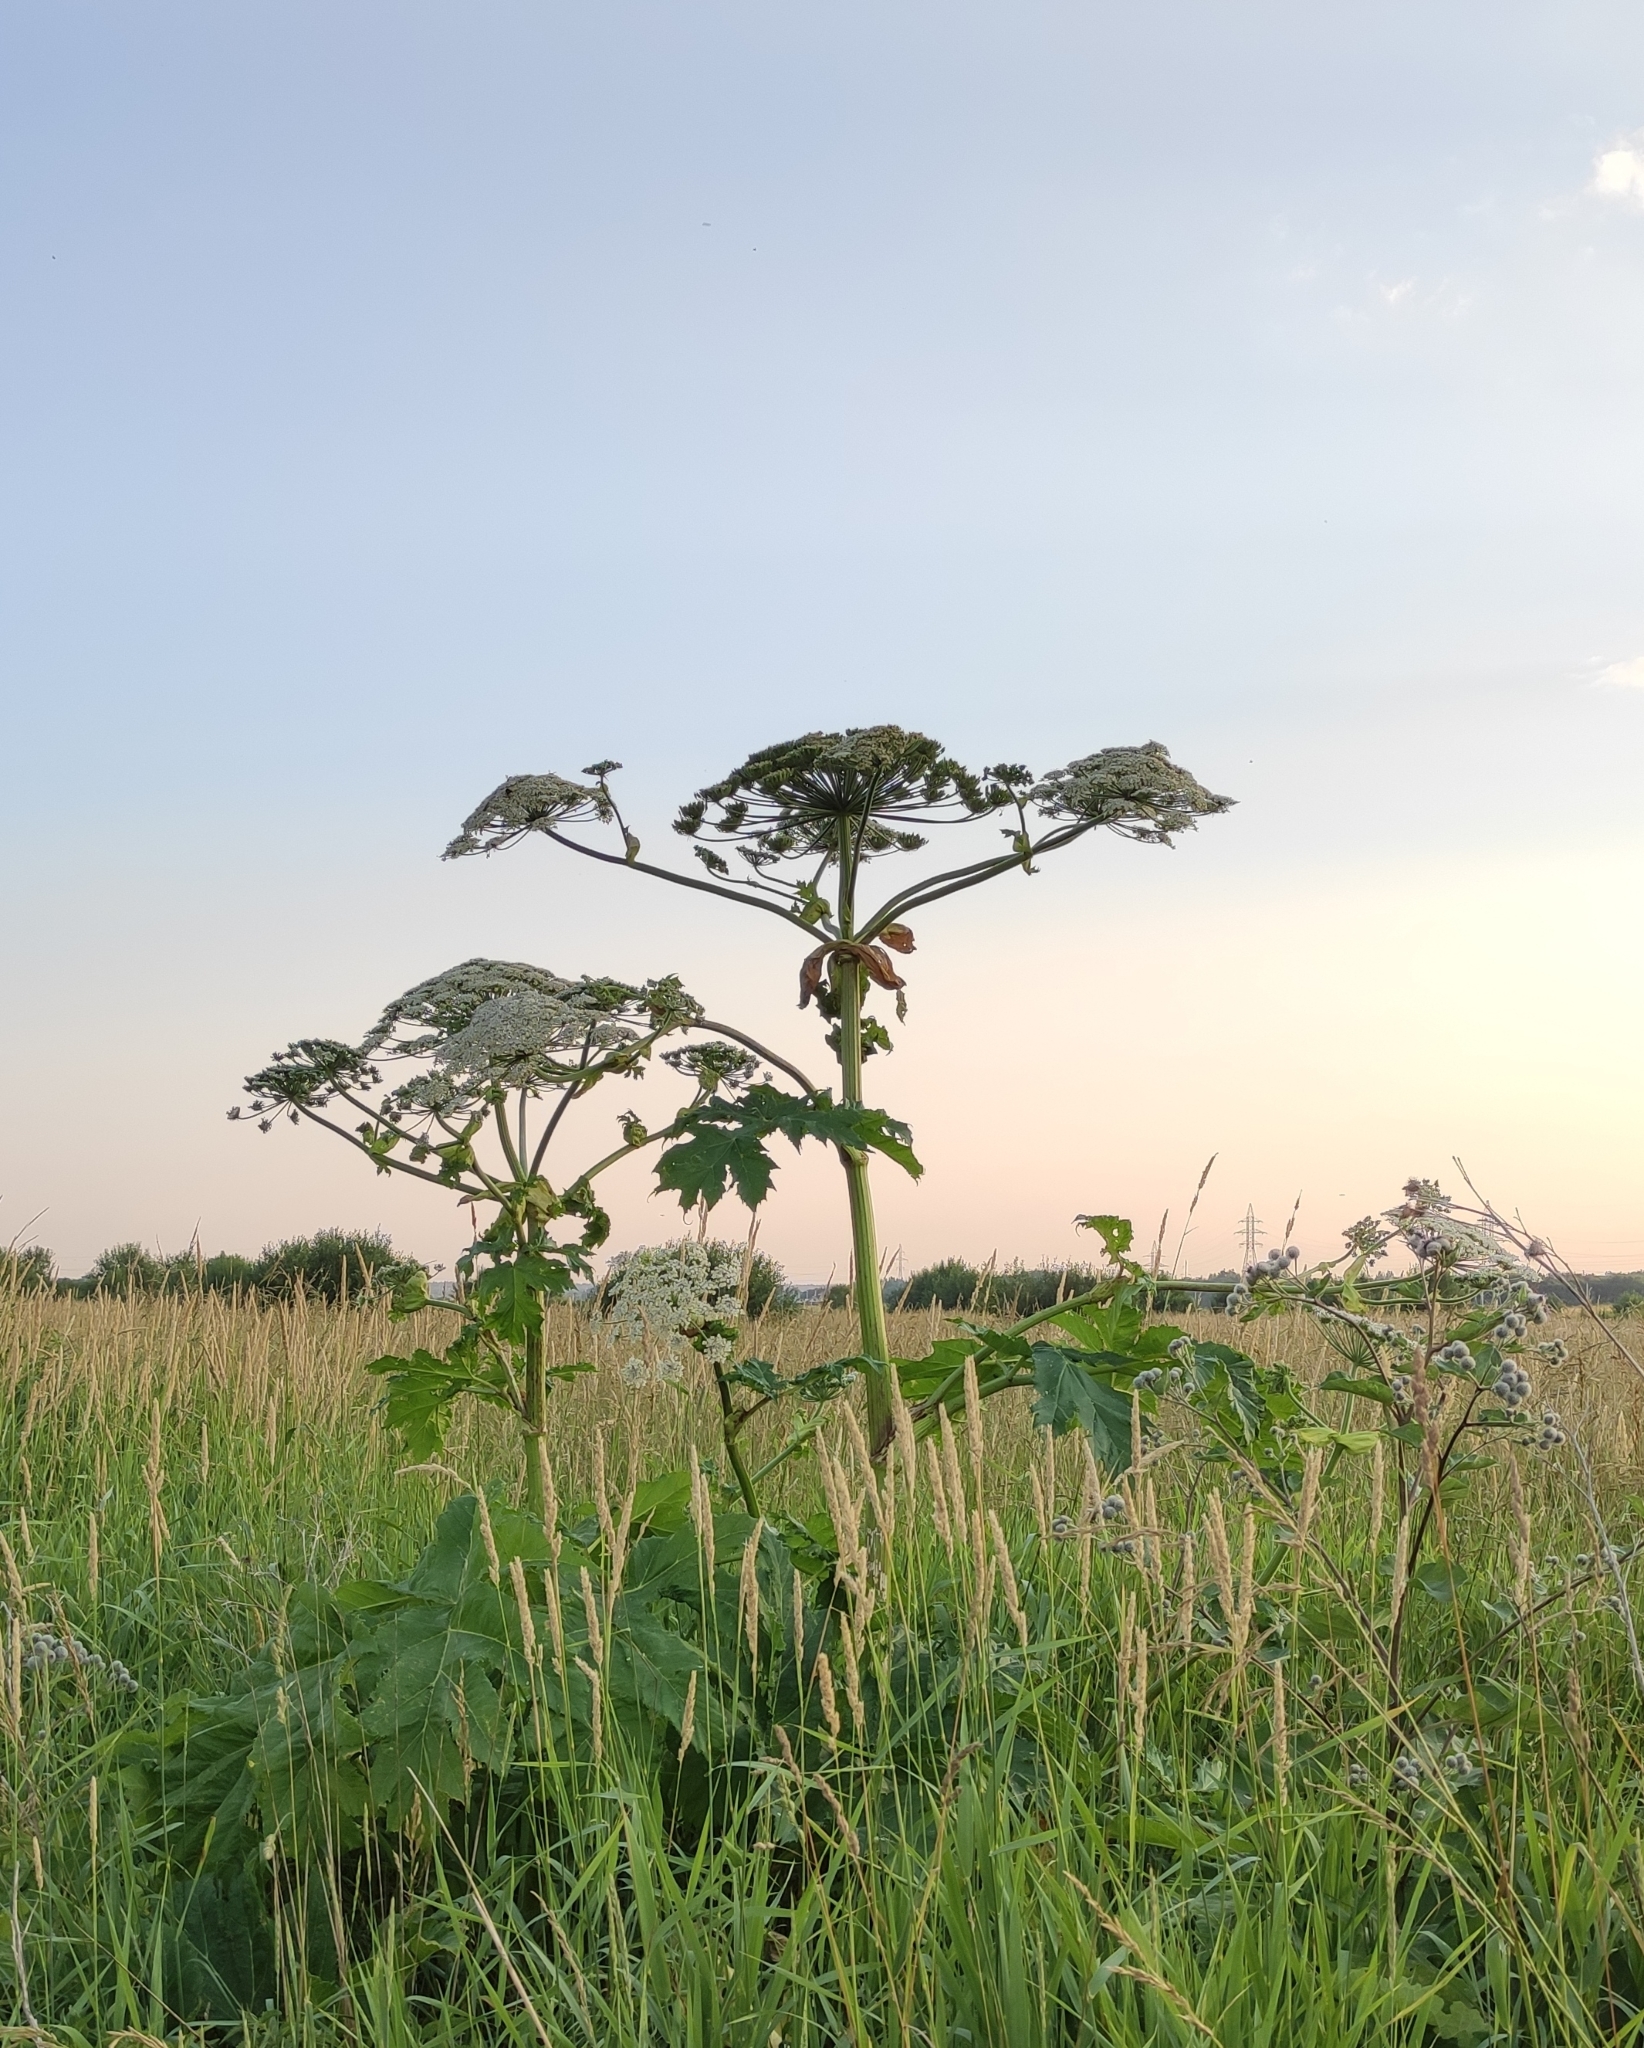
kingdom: Plantae
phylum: Tracheophyta
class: Magnoliopsida
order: Apiales
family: Apiaceae
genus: Heracleum
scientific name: Heracleum sosnowskyi
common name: Sosnowsky's hogweed
